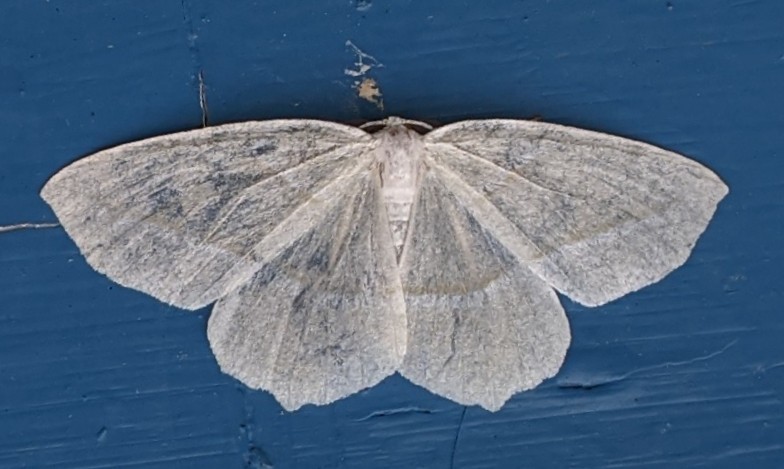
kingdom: Animalia
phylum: Arthropoda
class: Insecta
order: Lepidoptera
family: Geometridae
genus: Campaea
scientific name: Campaea perlata
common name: Fringed looper
